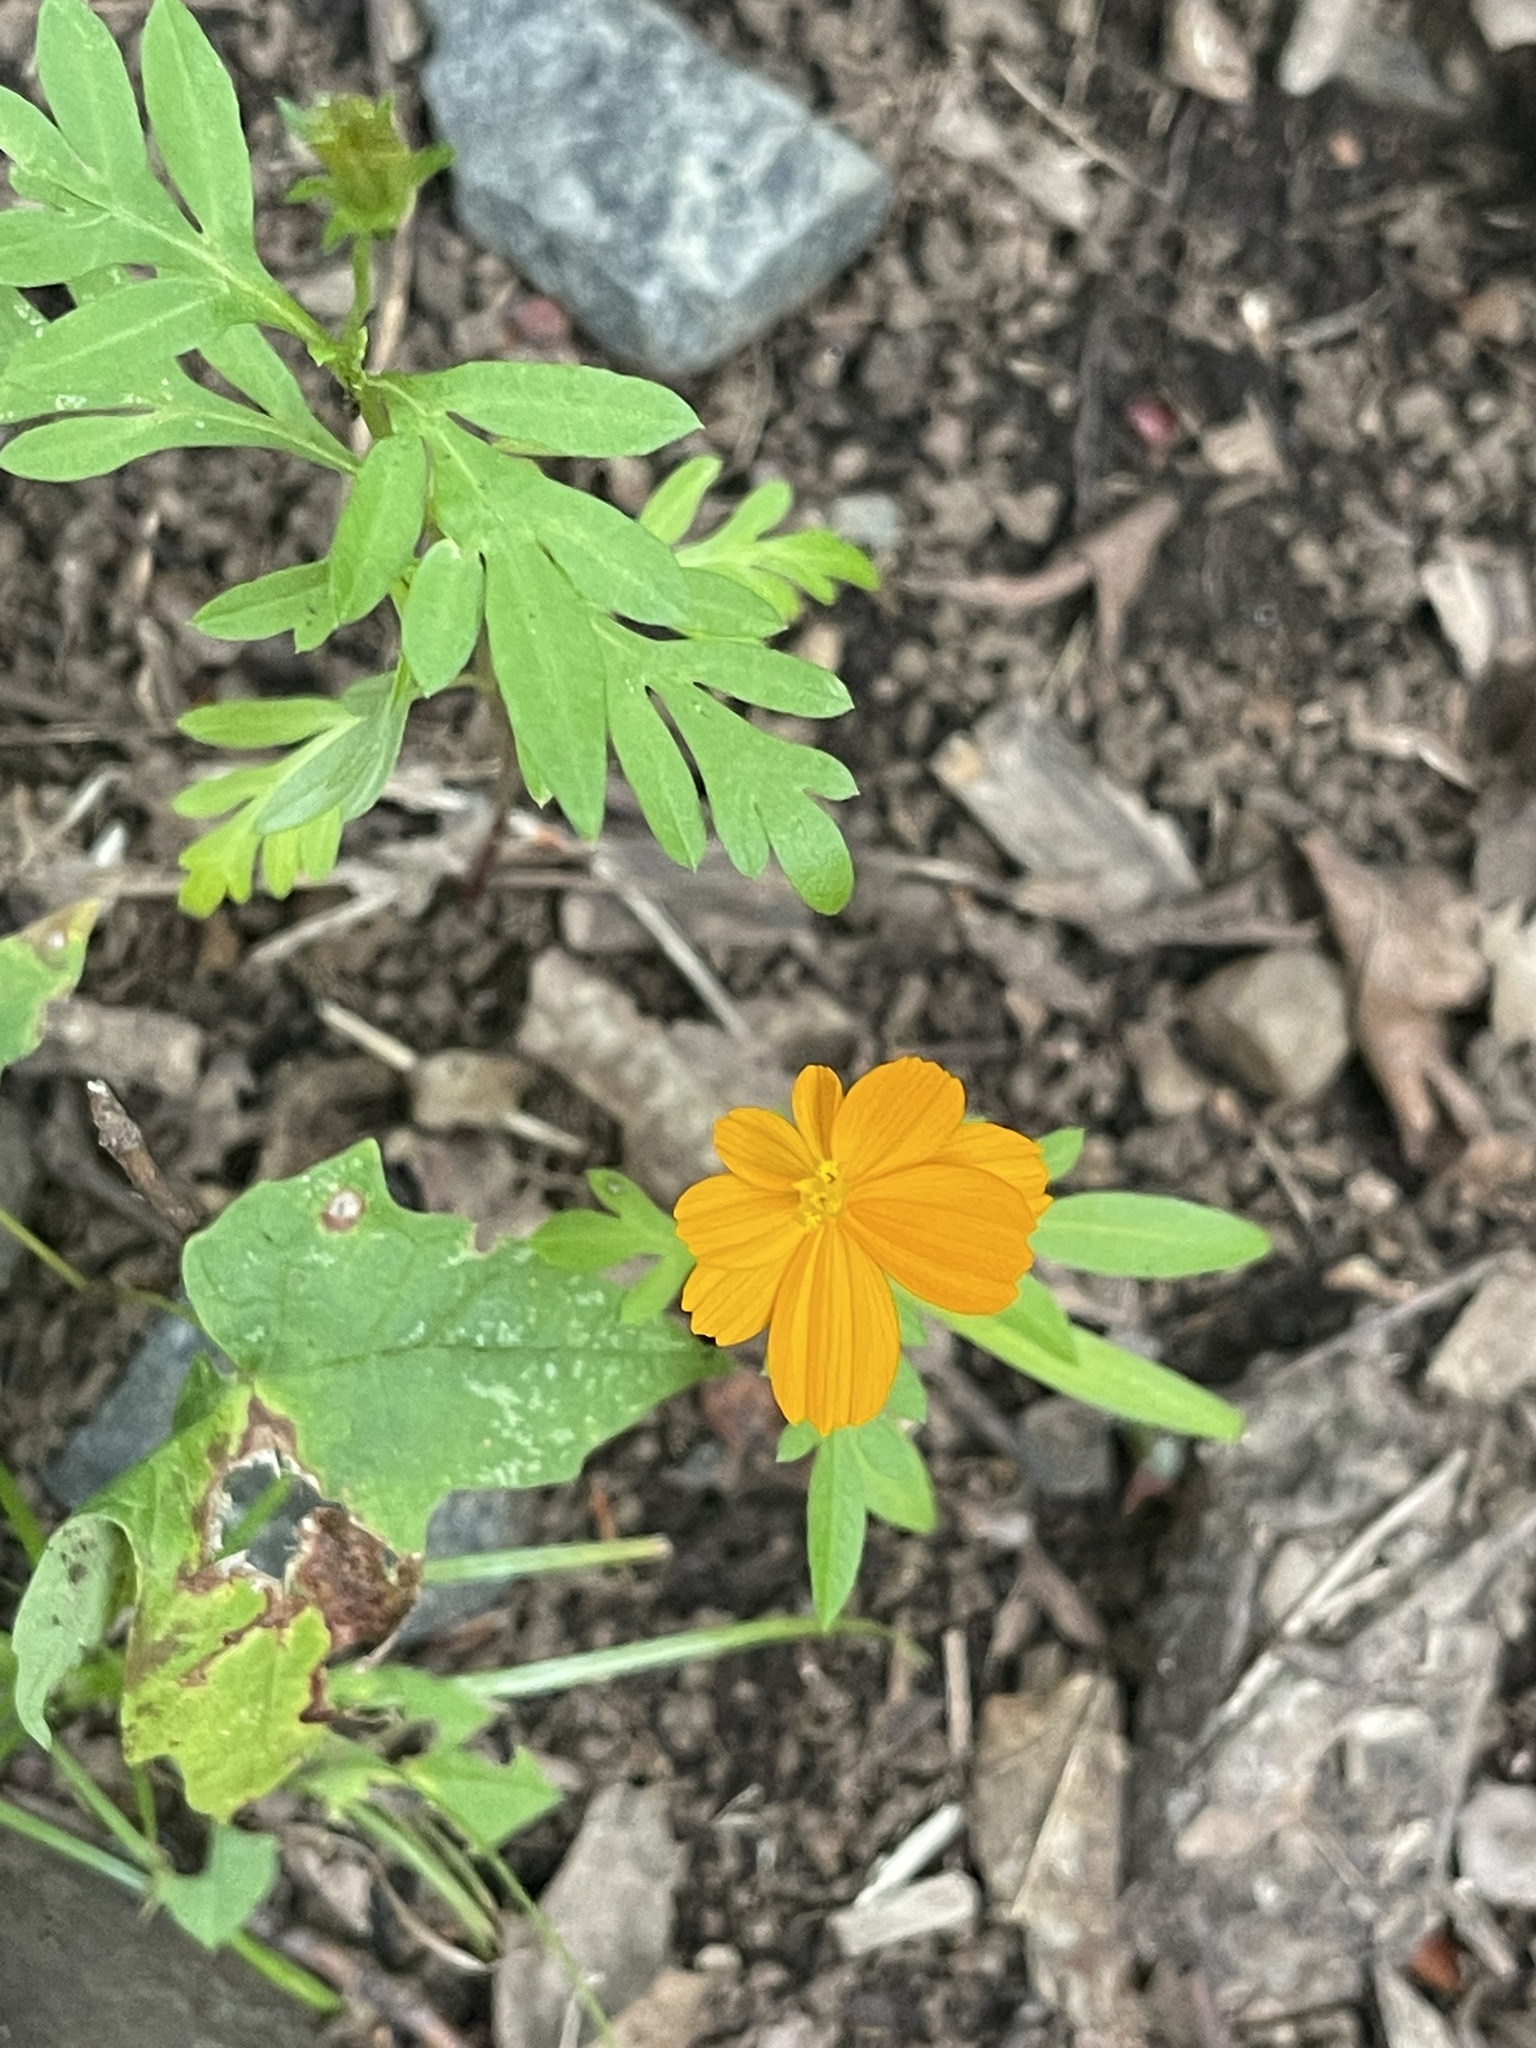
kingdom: Plantae
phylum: Tracheophyta
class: Magnoliopsida
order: Asterales
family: Asteraceae
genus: Cosmos
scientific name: Cosmos sulphureus
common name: Sulphur cosmos
